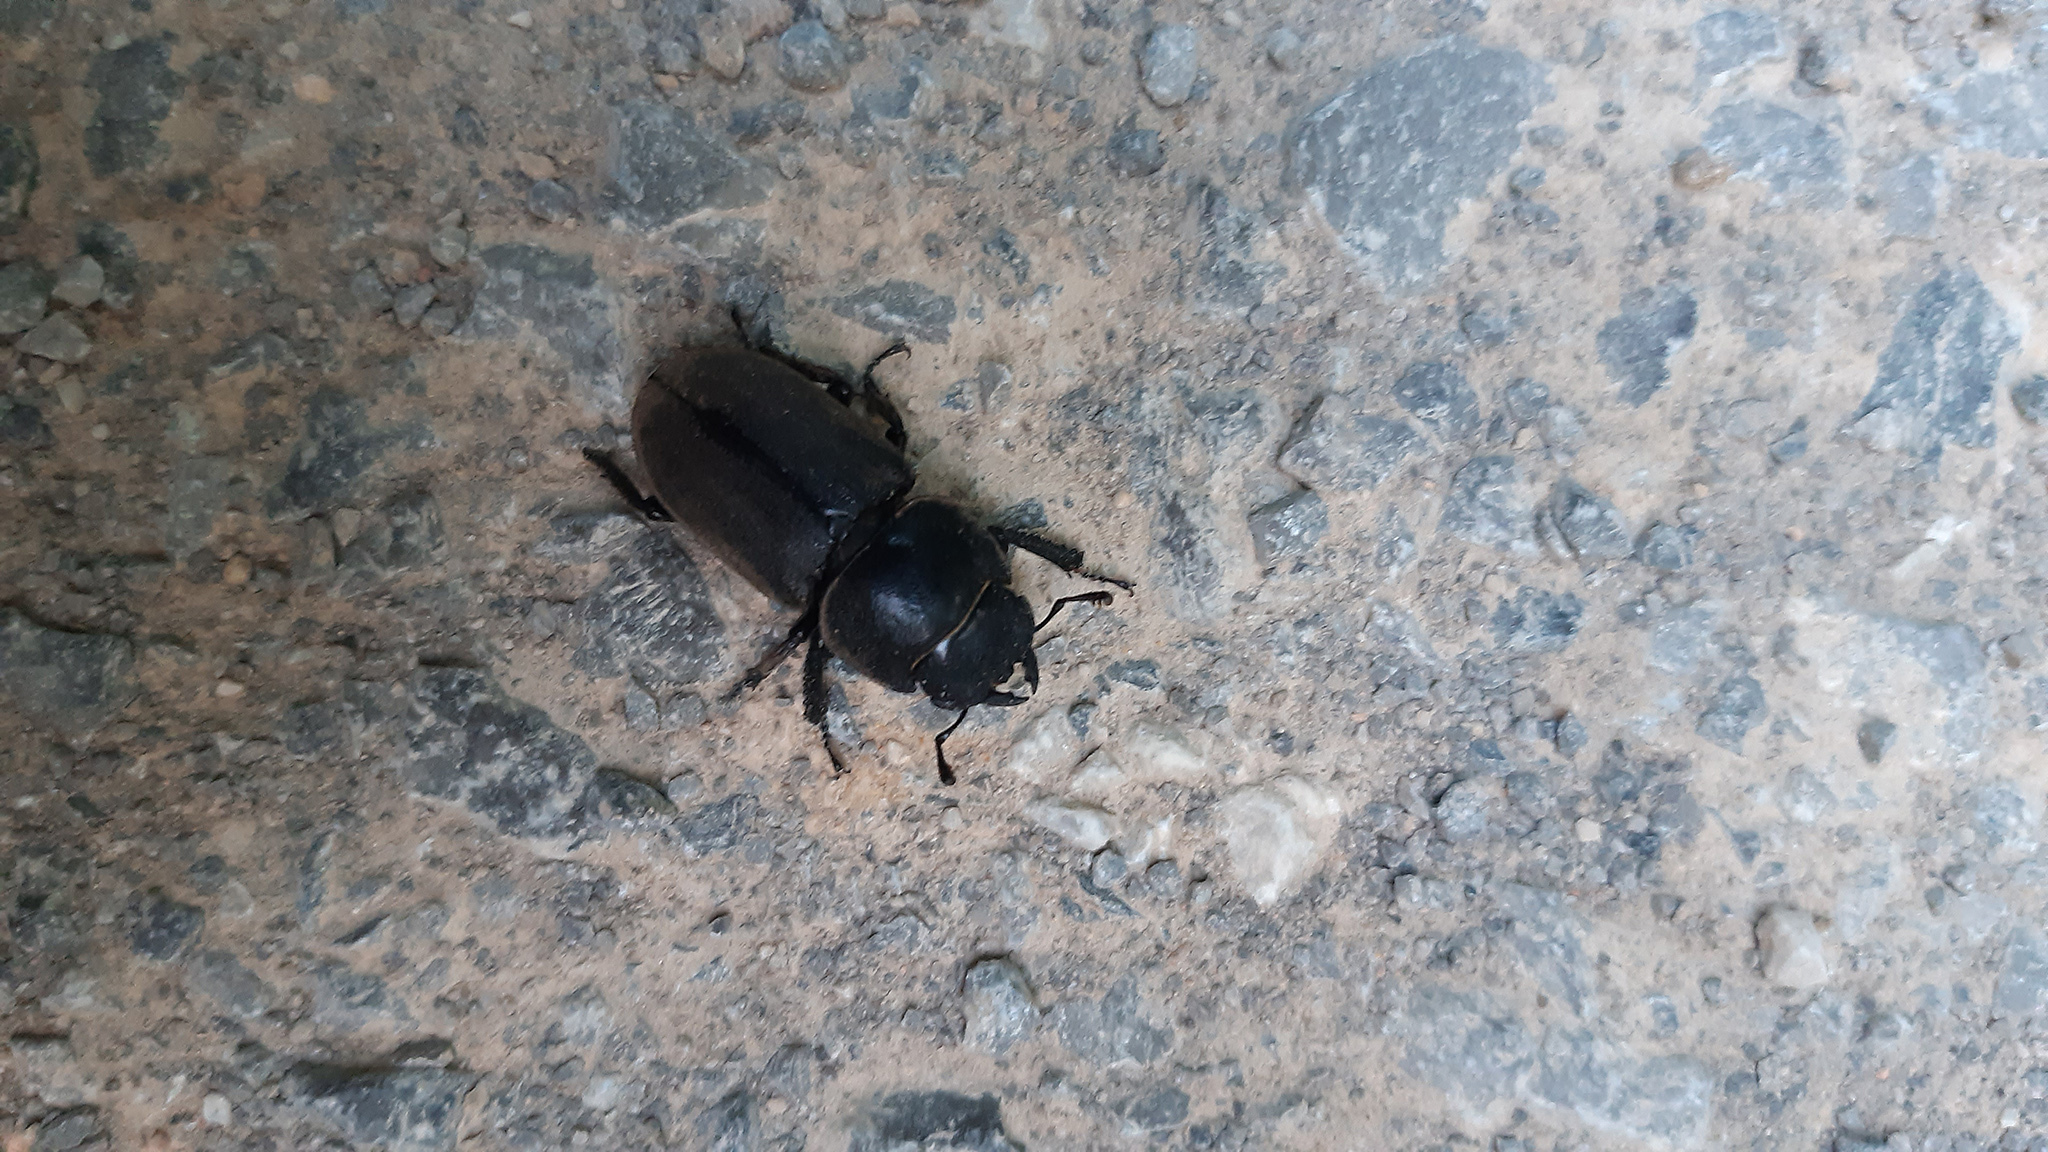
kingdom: Animalia
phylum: Arthropoda
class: Insecta
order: Coleoptera
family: Lucanidae
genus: Dorcus
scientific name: Dorcus parallelipipedus
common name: Lesser stag beetle
